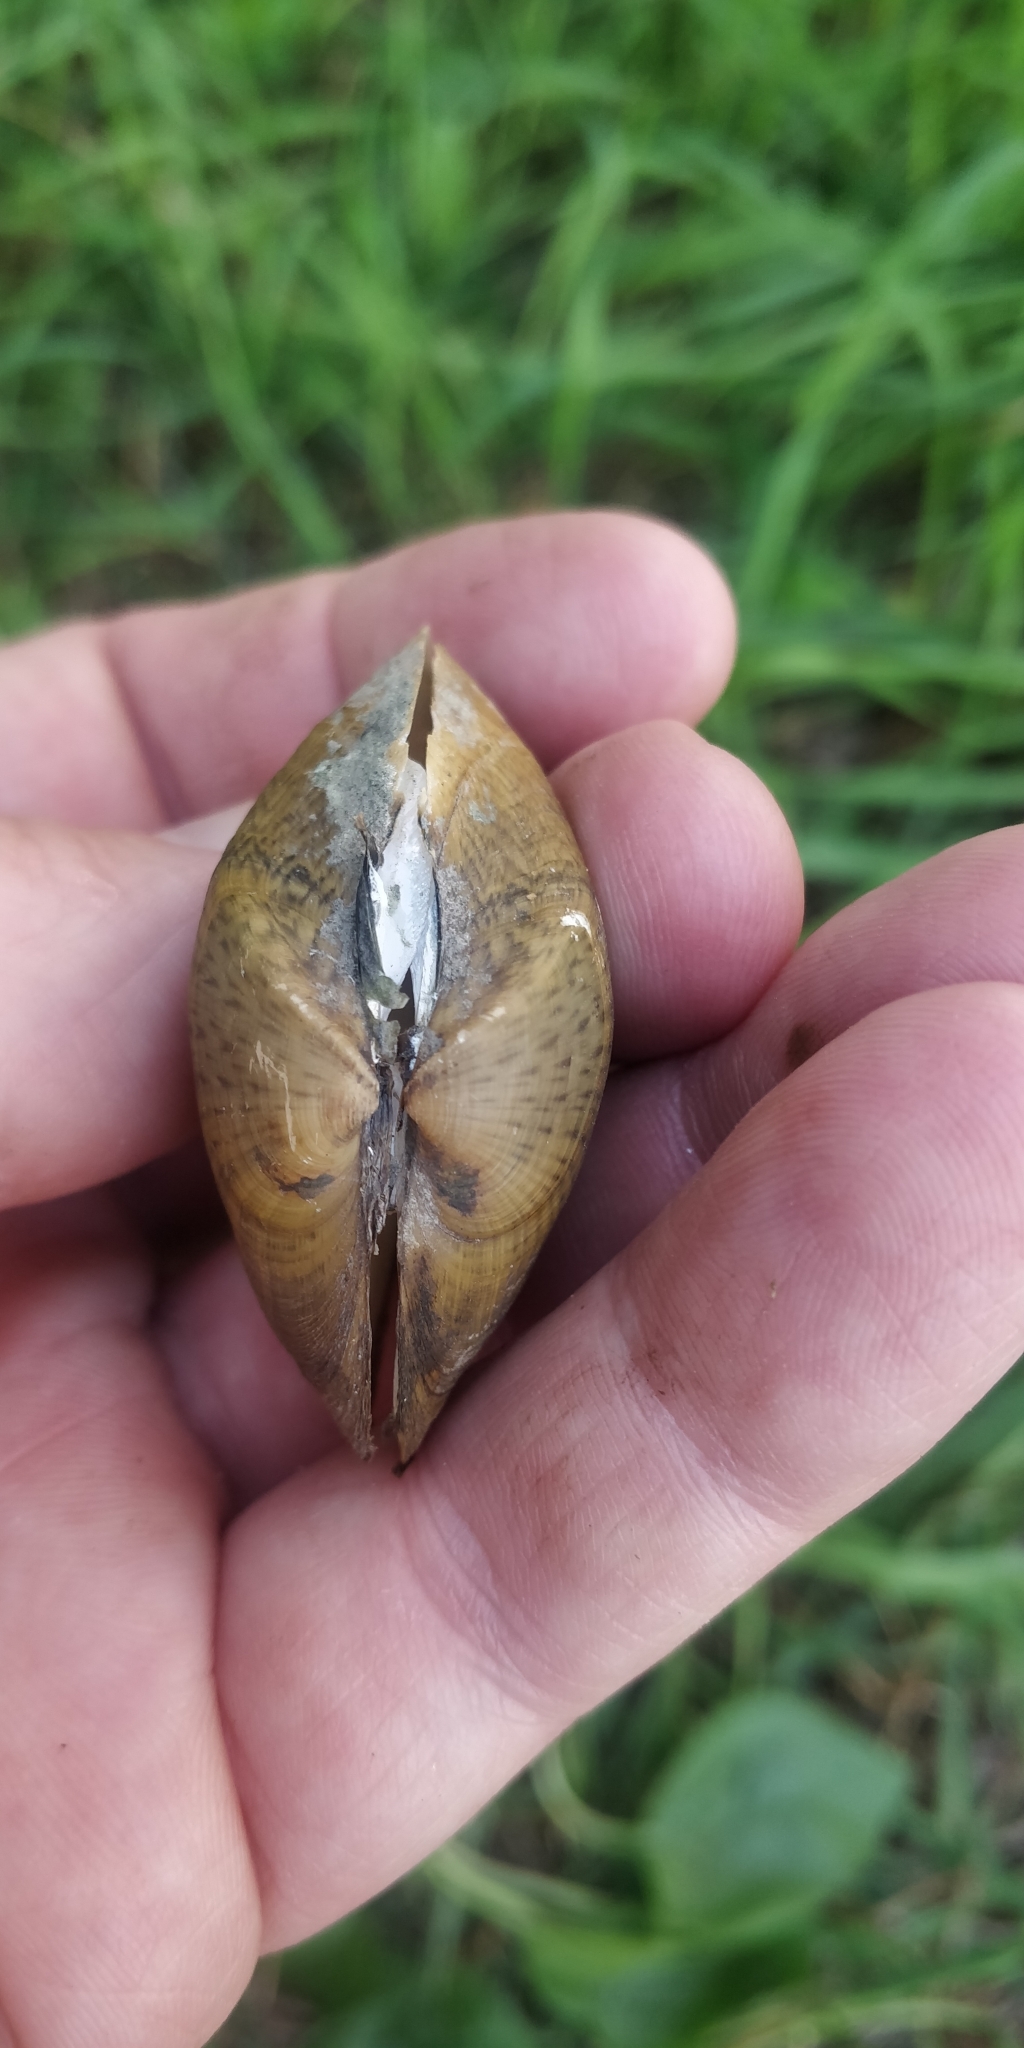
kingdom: Animalia
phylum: Mollusca
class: Bivalvia
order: Unionida
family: Unionidae
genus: Truncilla
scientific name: Truncilla truncata
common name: Deertoe
